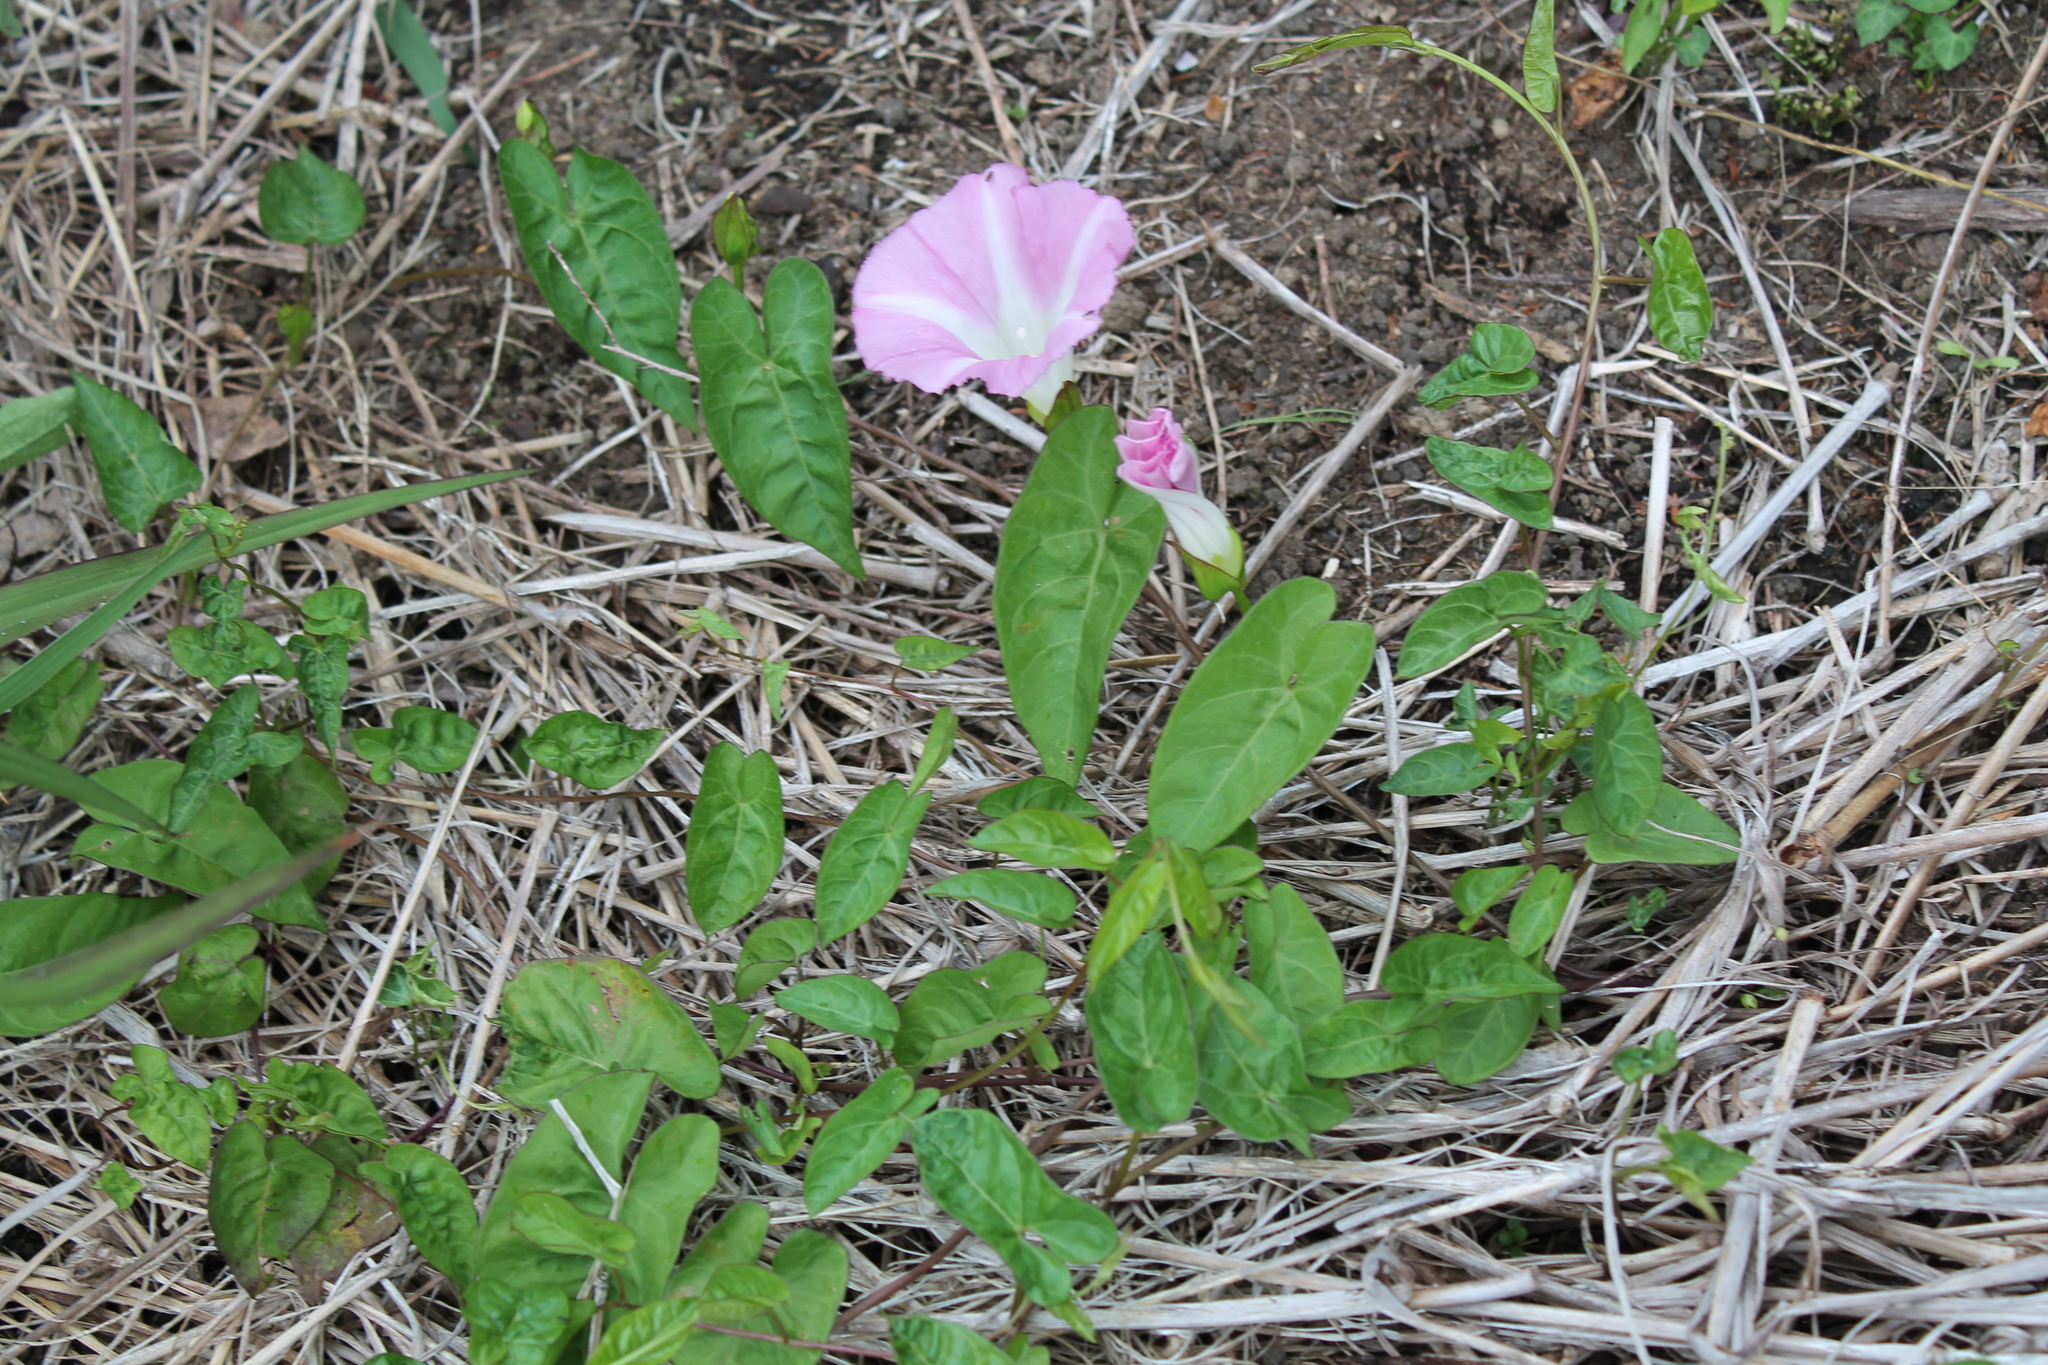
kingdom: Plantae
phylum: Tracheophyta
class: Magnoliopsida
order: Solanales
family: Convolvulaceae
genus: Calystegia
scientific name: Calystegia sepium
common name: Hedge bindweed
